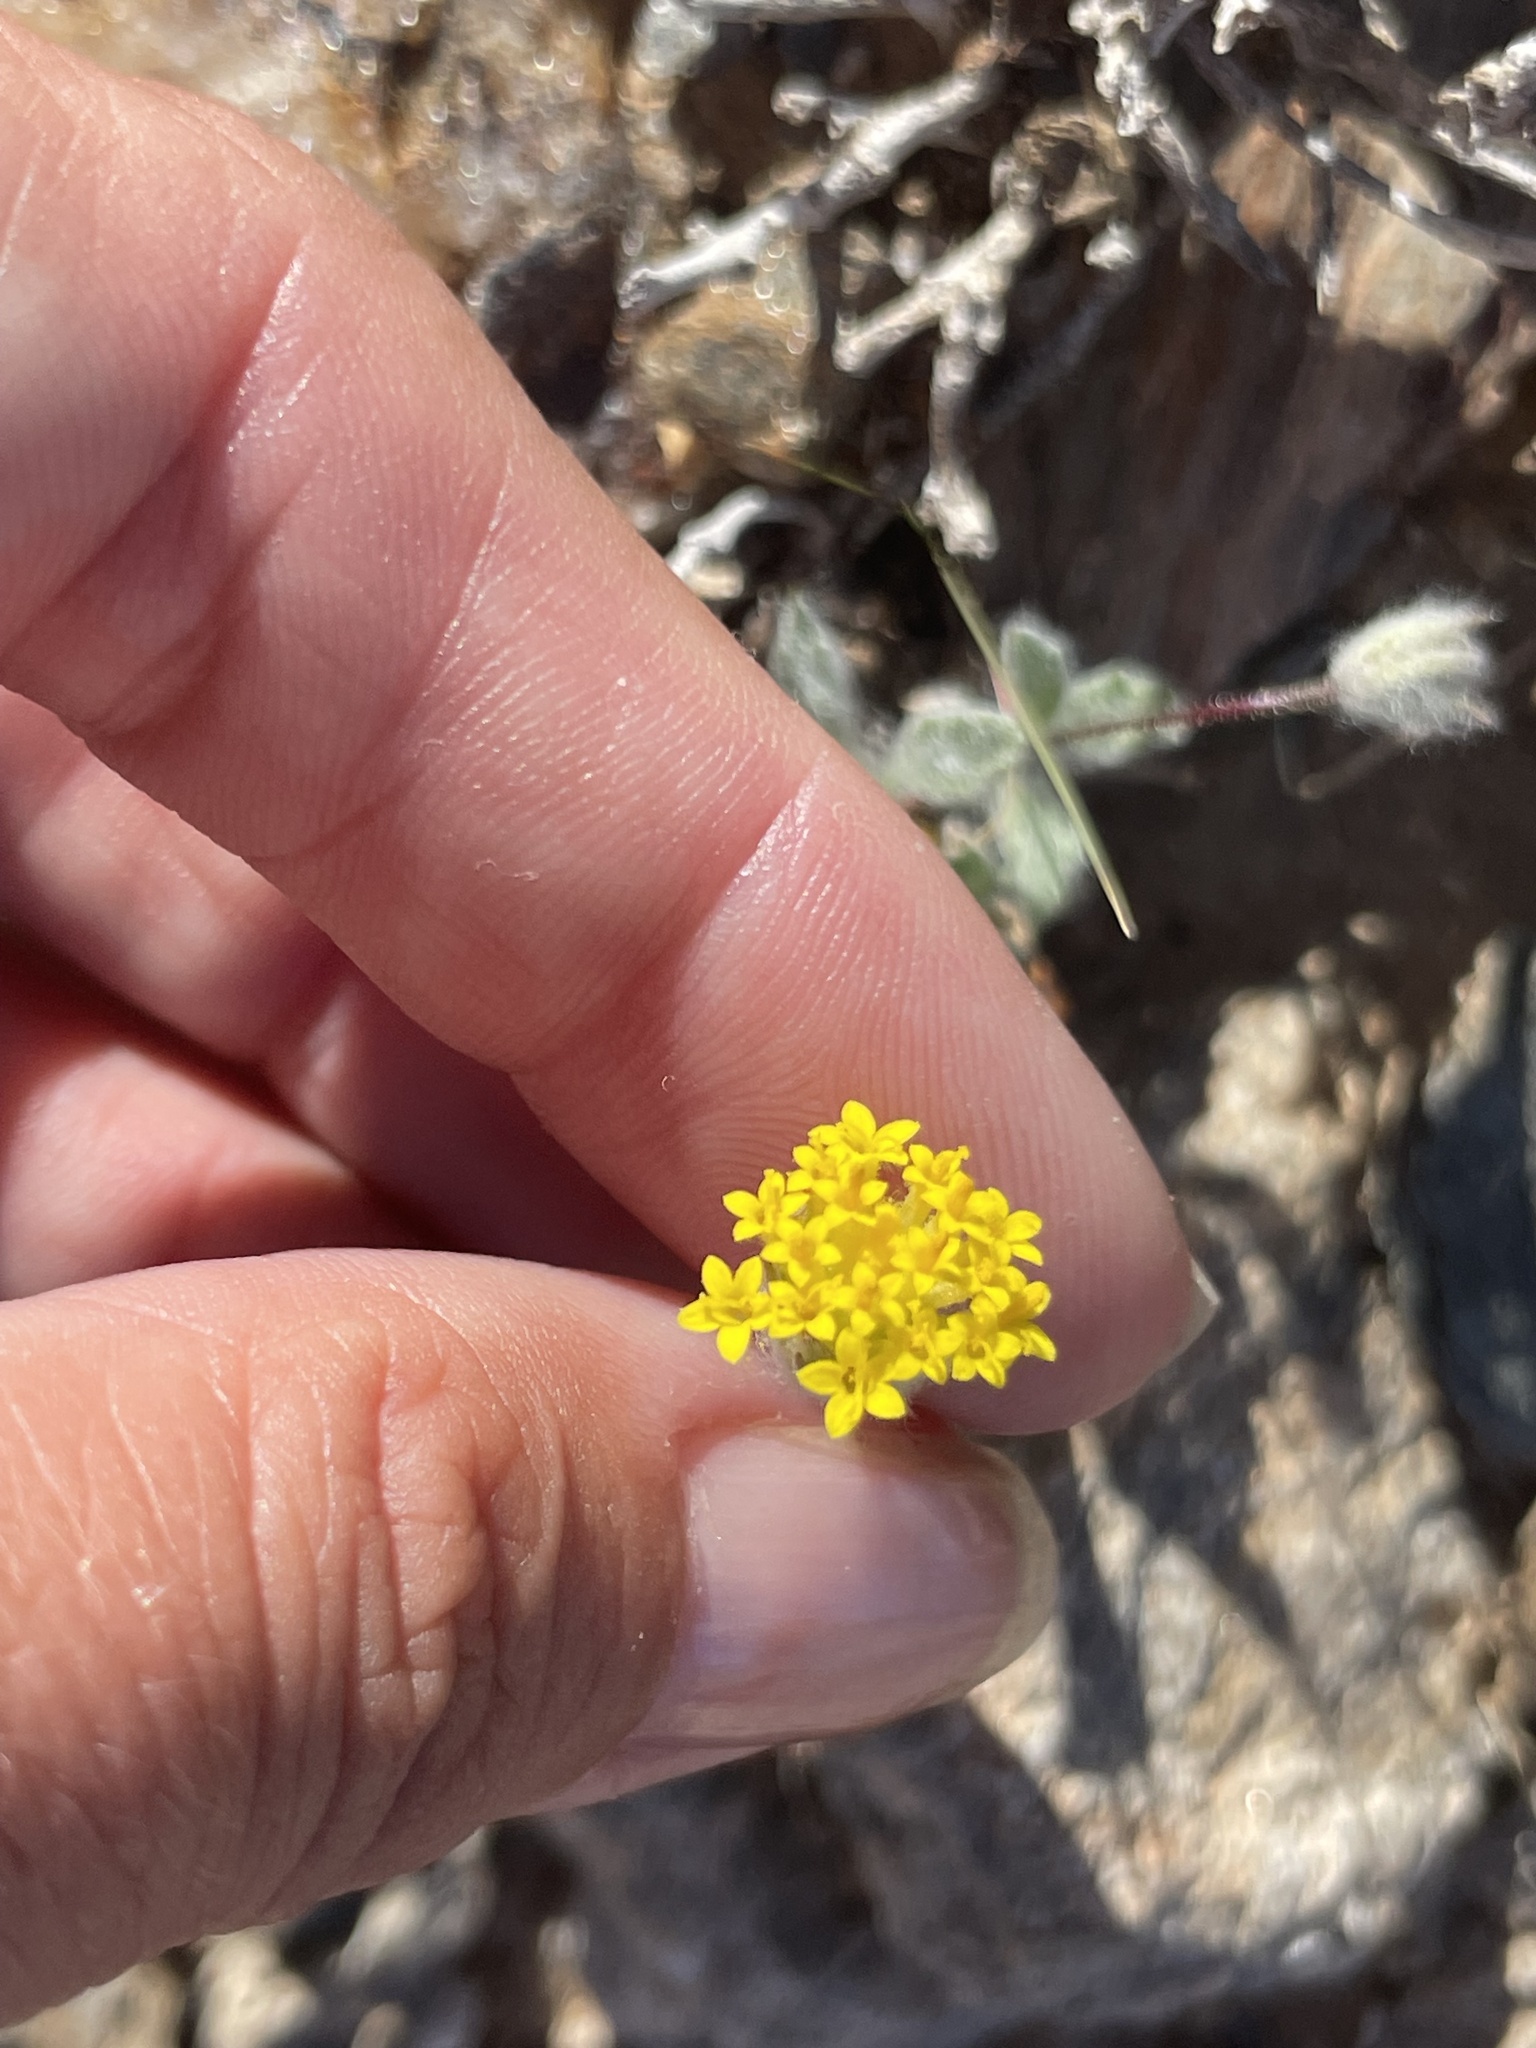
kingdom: Plantae
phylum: Tracheophyta
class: Magnoliopsida
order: Asterales
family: Asteraceae
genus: Trichoptilium
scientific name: Trichoptilium incisum
